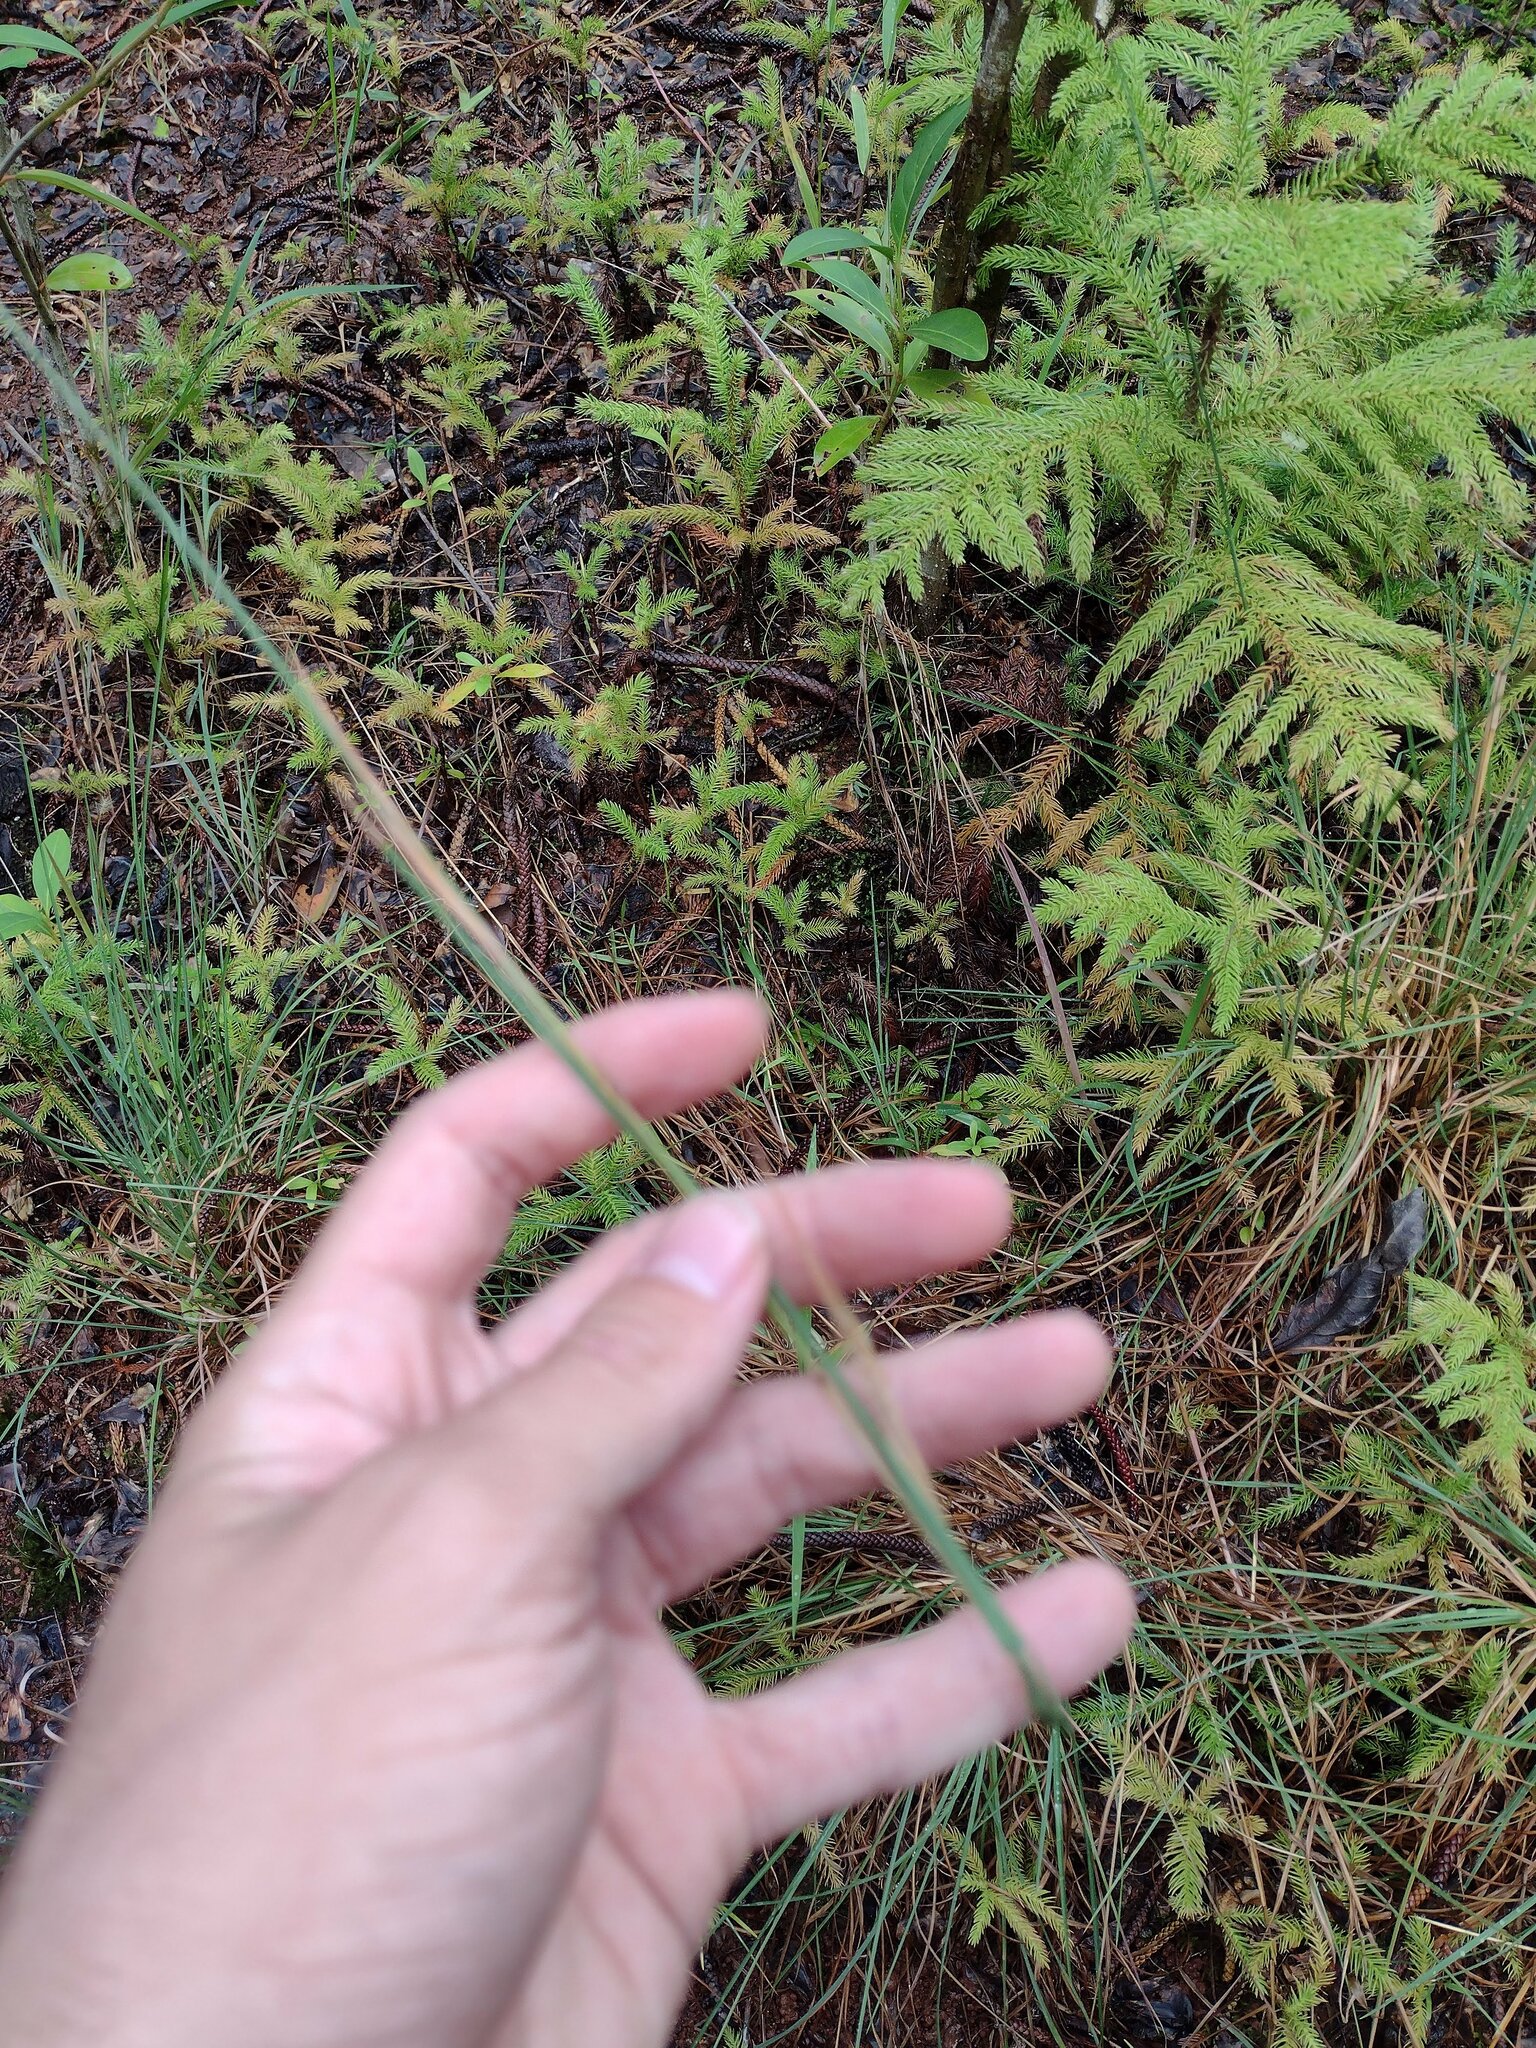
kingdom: Plantae
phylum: Tracheophyta
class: Liliopsida
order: Poales
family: Poaceae
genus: Andropogon
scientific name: Andropogon virginicus
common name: Broomsedge bluestem
